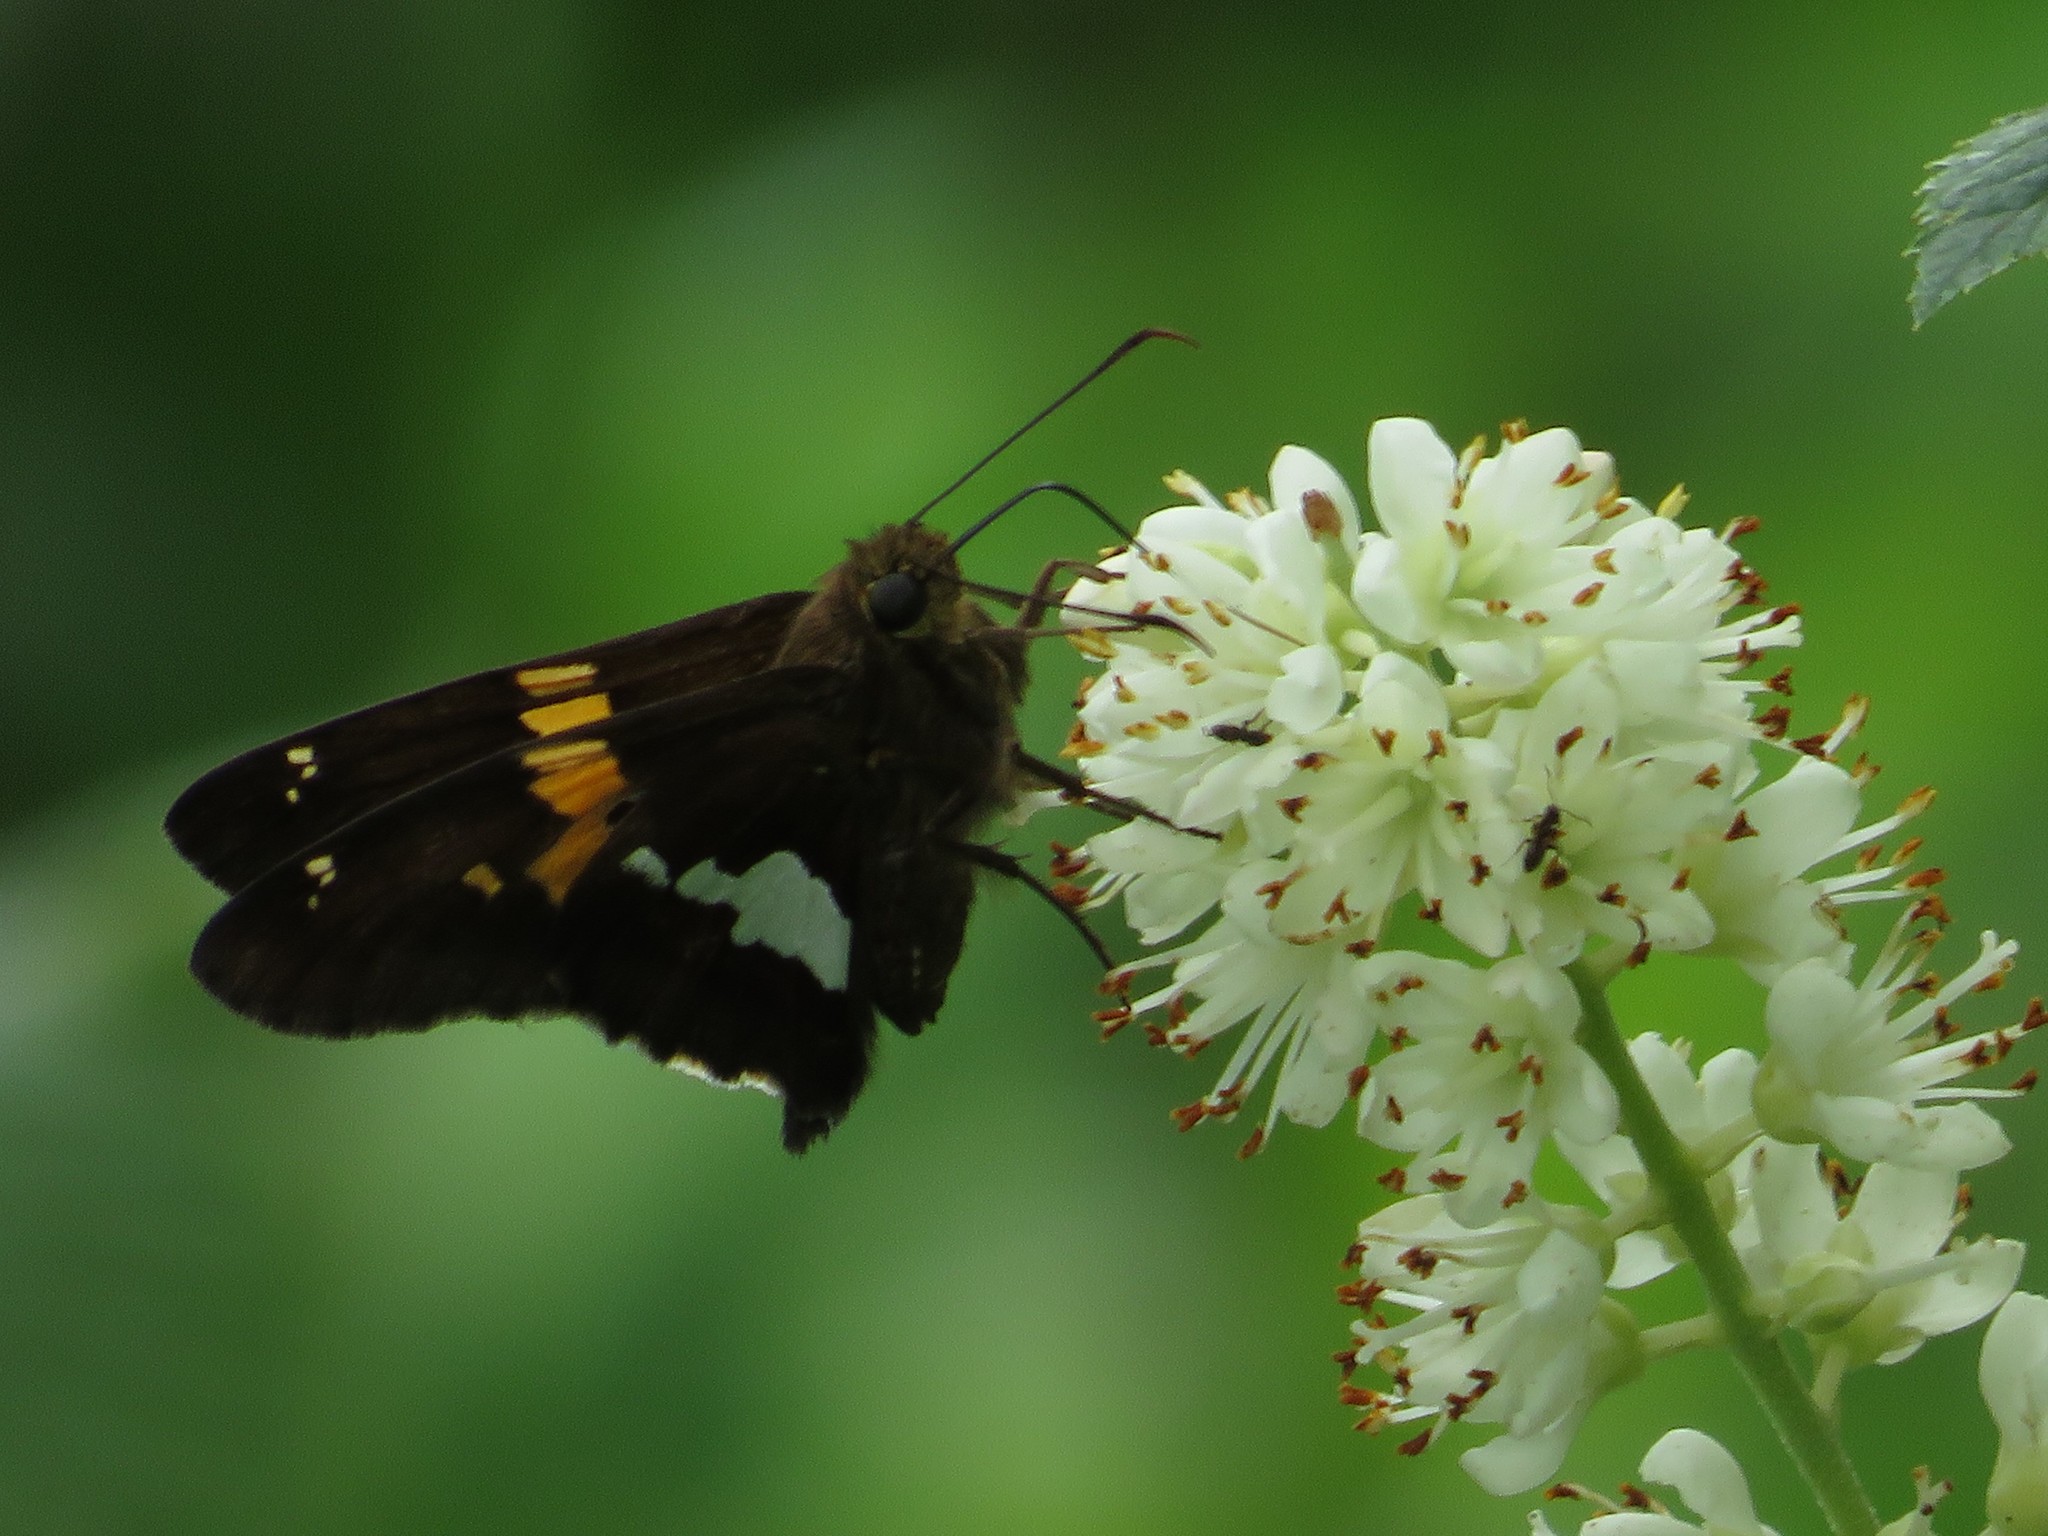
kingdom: Animalia
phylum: Arthropoda
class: Insecta
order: Lepidoptera
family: Hesperiidae
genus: Epargyreus
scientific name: Epargyreus clarus
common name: Silver-spotted skipper
